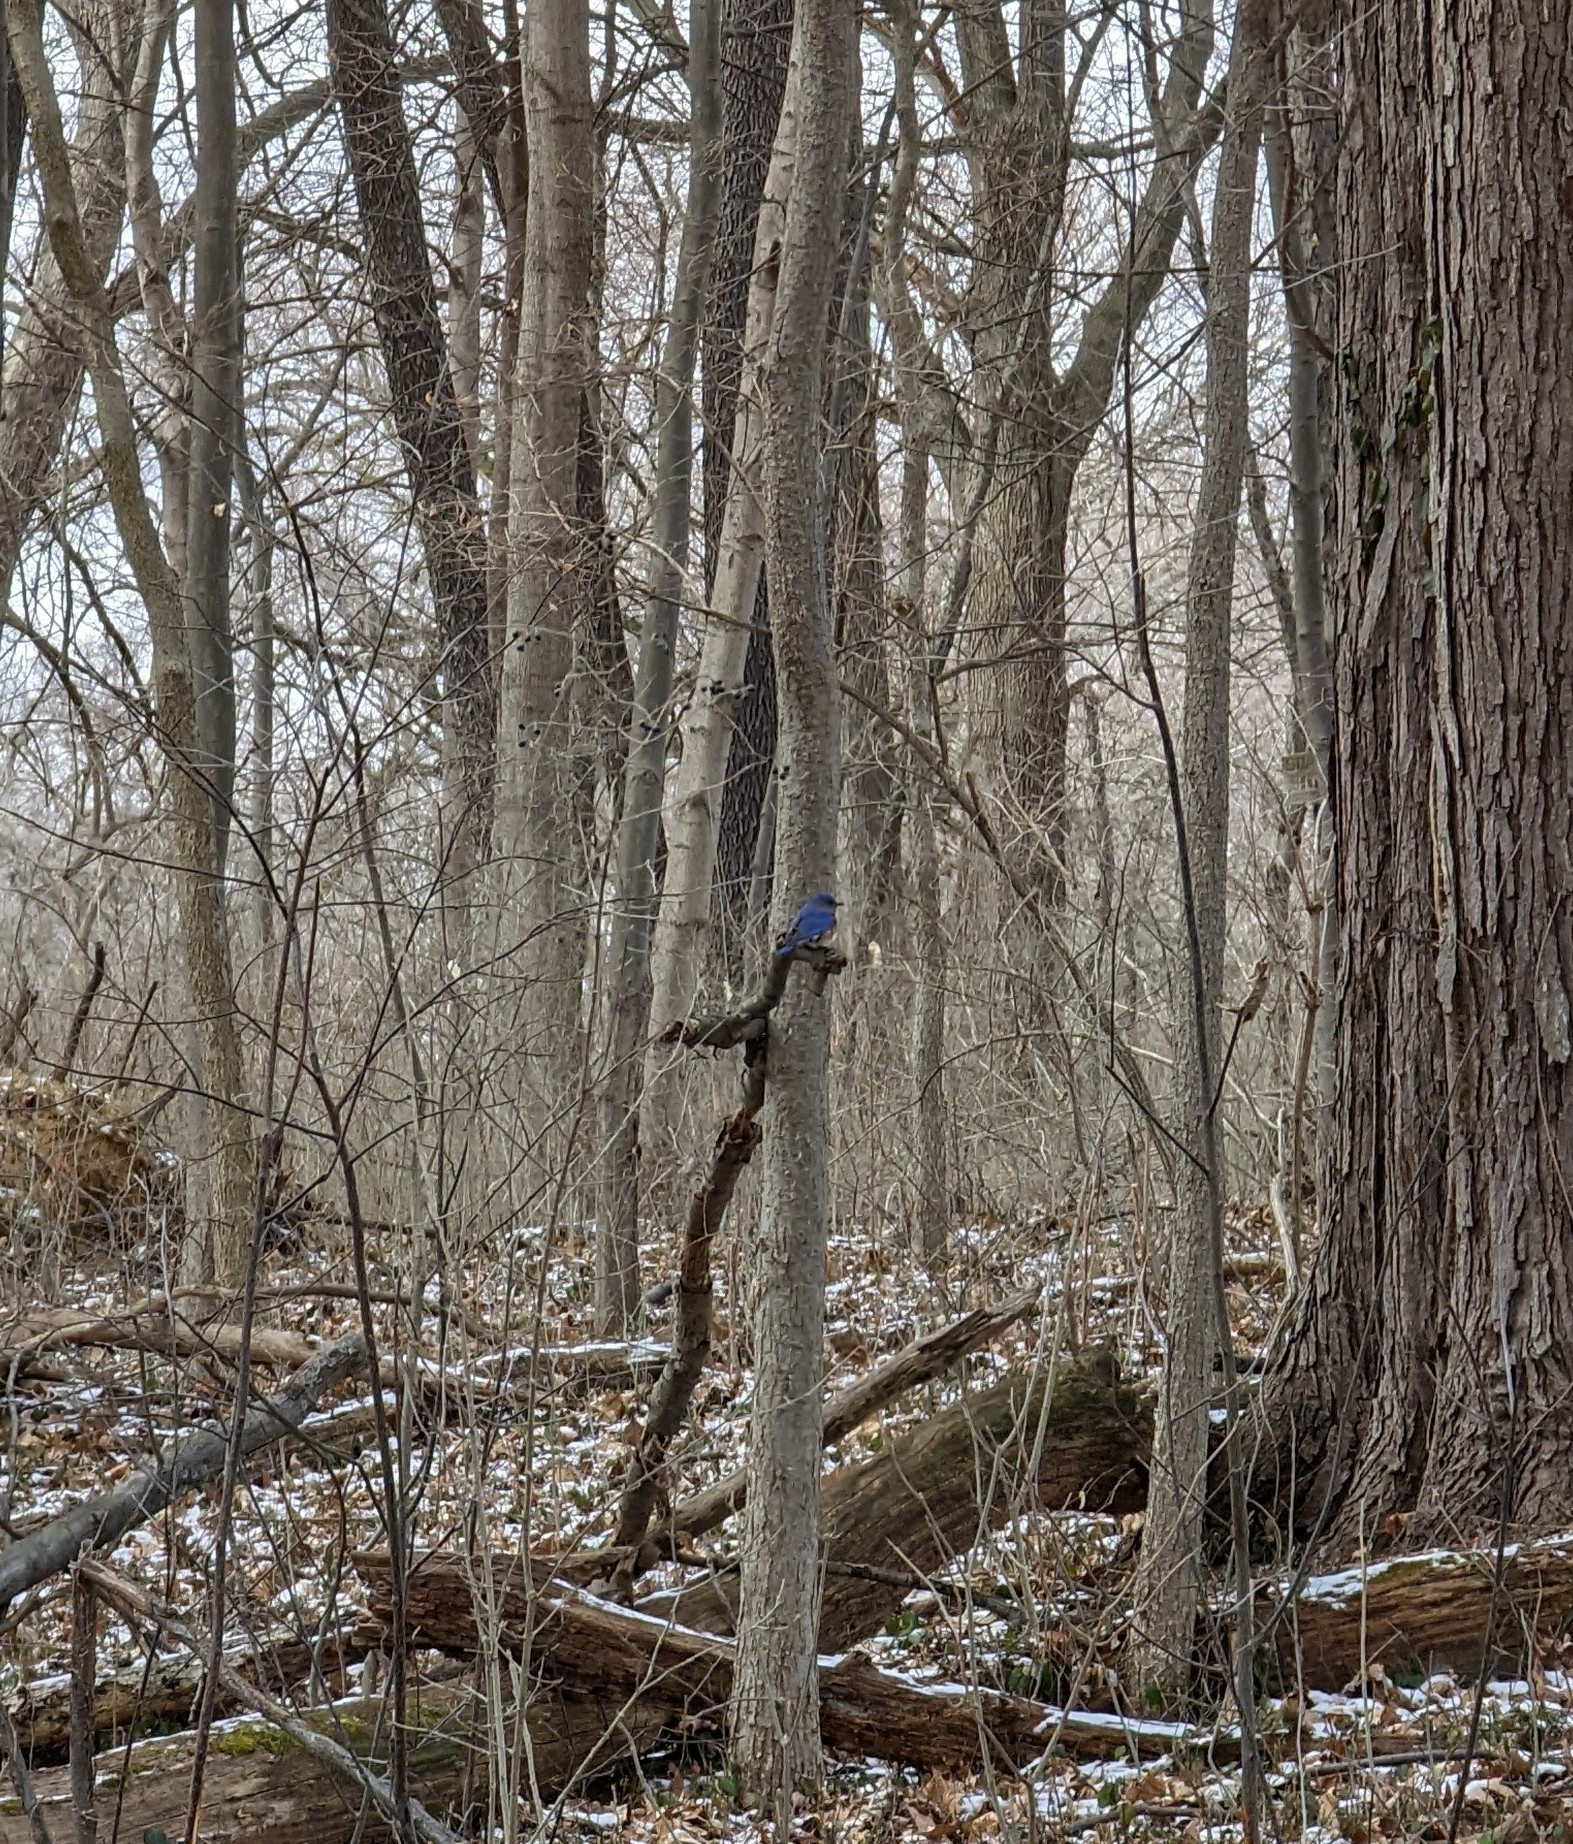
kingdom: Animalia
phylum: Chordata
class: Aves
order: Passeriformes
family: Turdidae
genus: Sialia
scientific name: Sialia sialis
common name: Eastern bluebird
